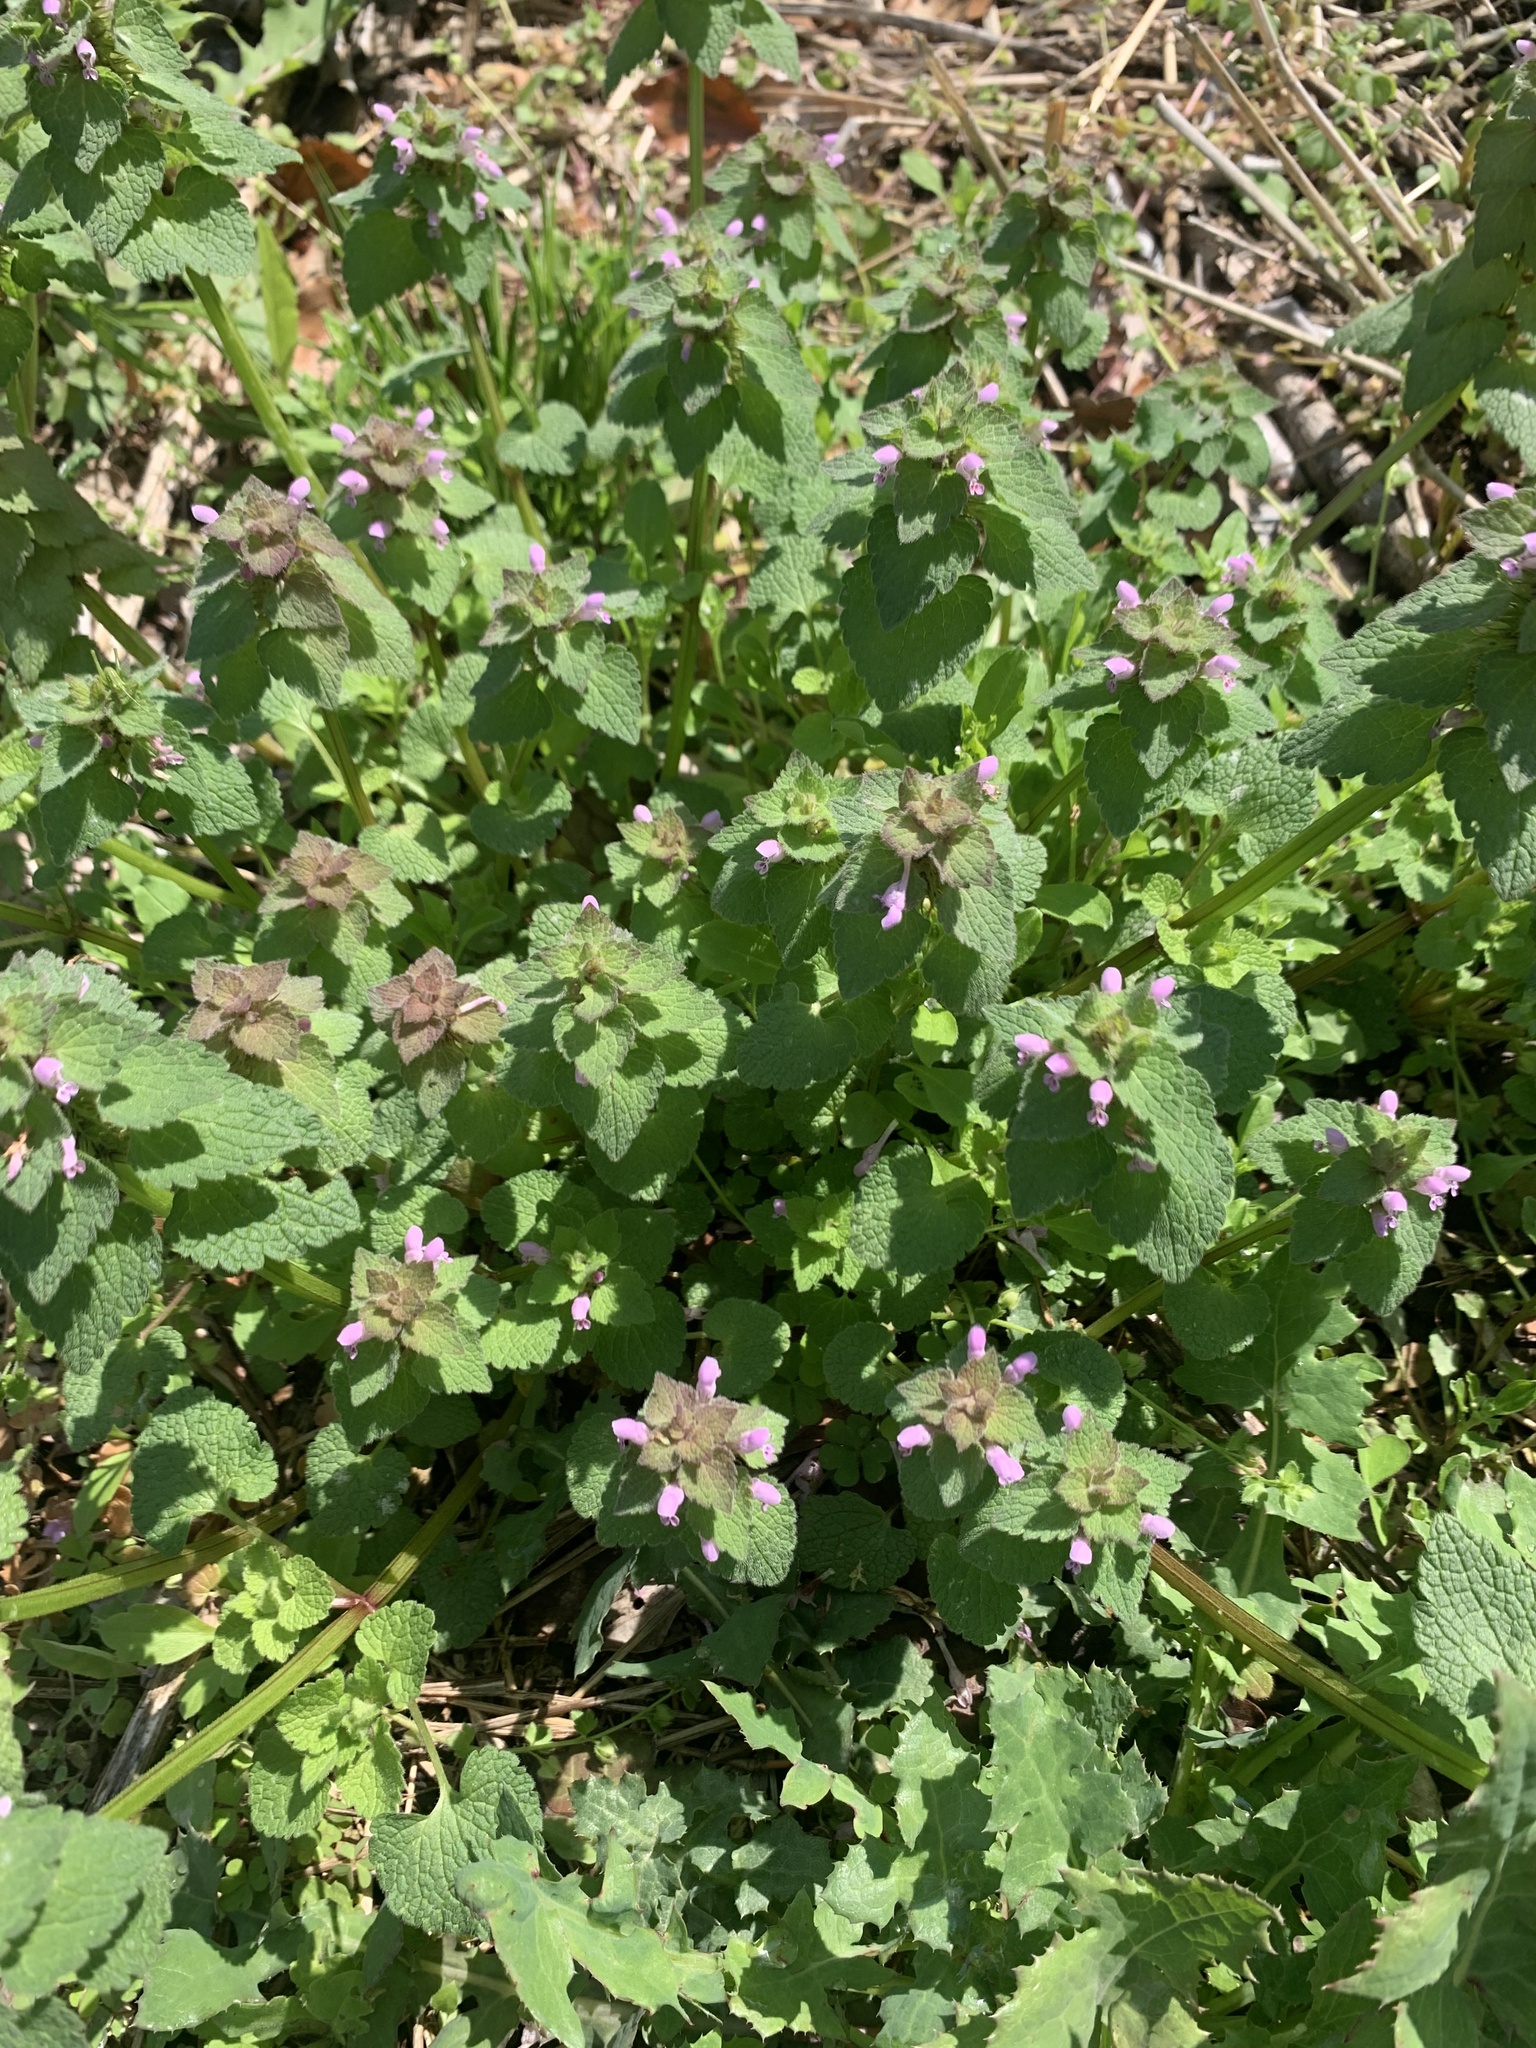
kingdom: Plantae
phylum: Tracheophyta
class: Magnoliopsida
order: Lamiales
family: Lamiaceae
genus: Lamium
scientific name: Lamium purpureum
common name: Red dead-nettle
